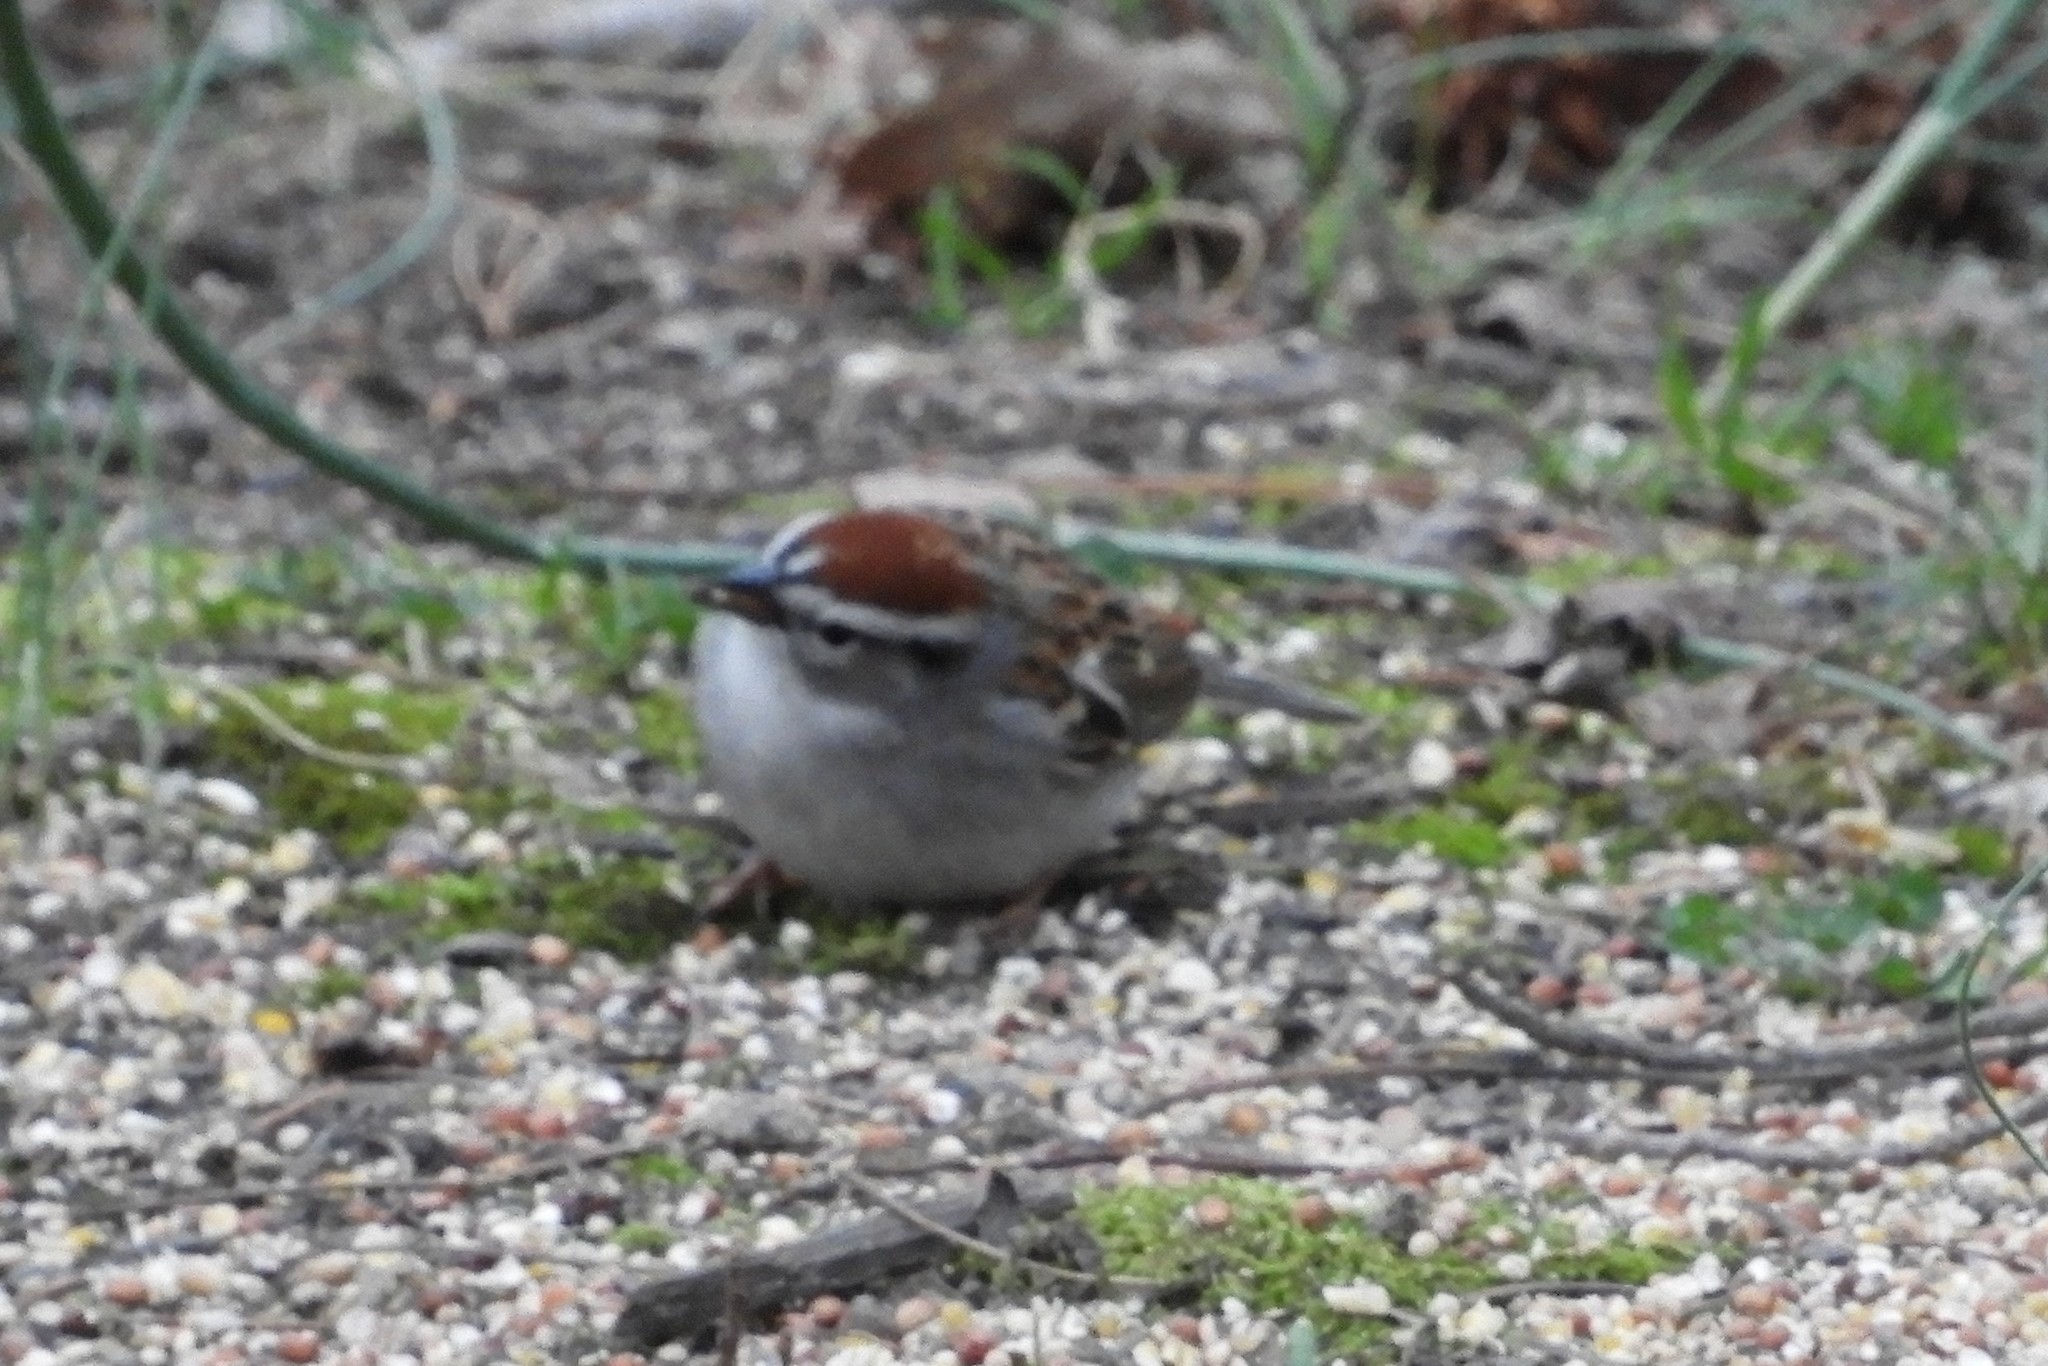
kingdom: Animalia
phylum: Chordata
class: Aves
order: Passeriformes
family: Passerellidae
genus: Spizella
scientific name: Spizella passerina
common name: Chipping sparrow
